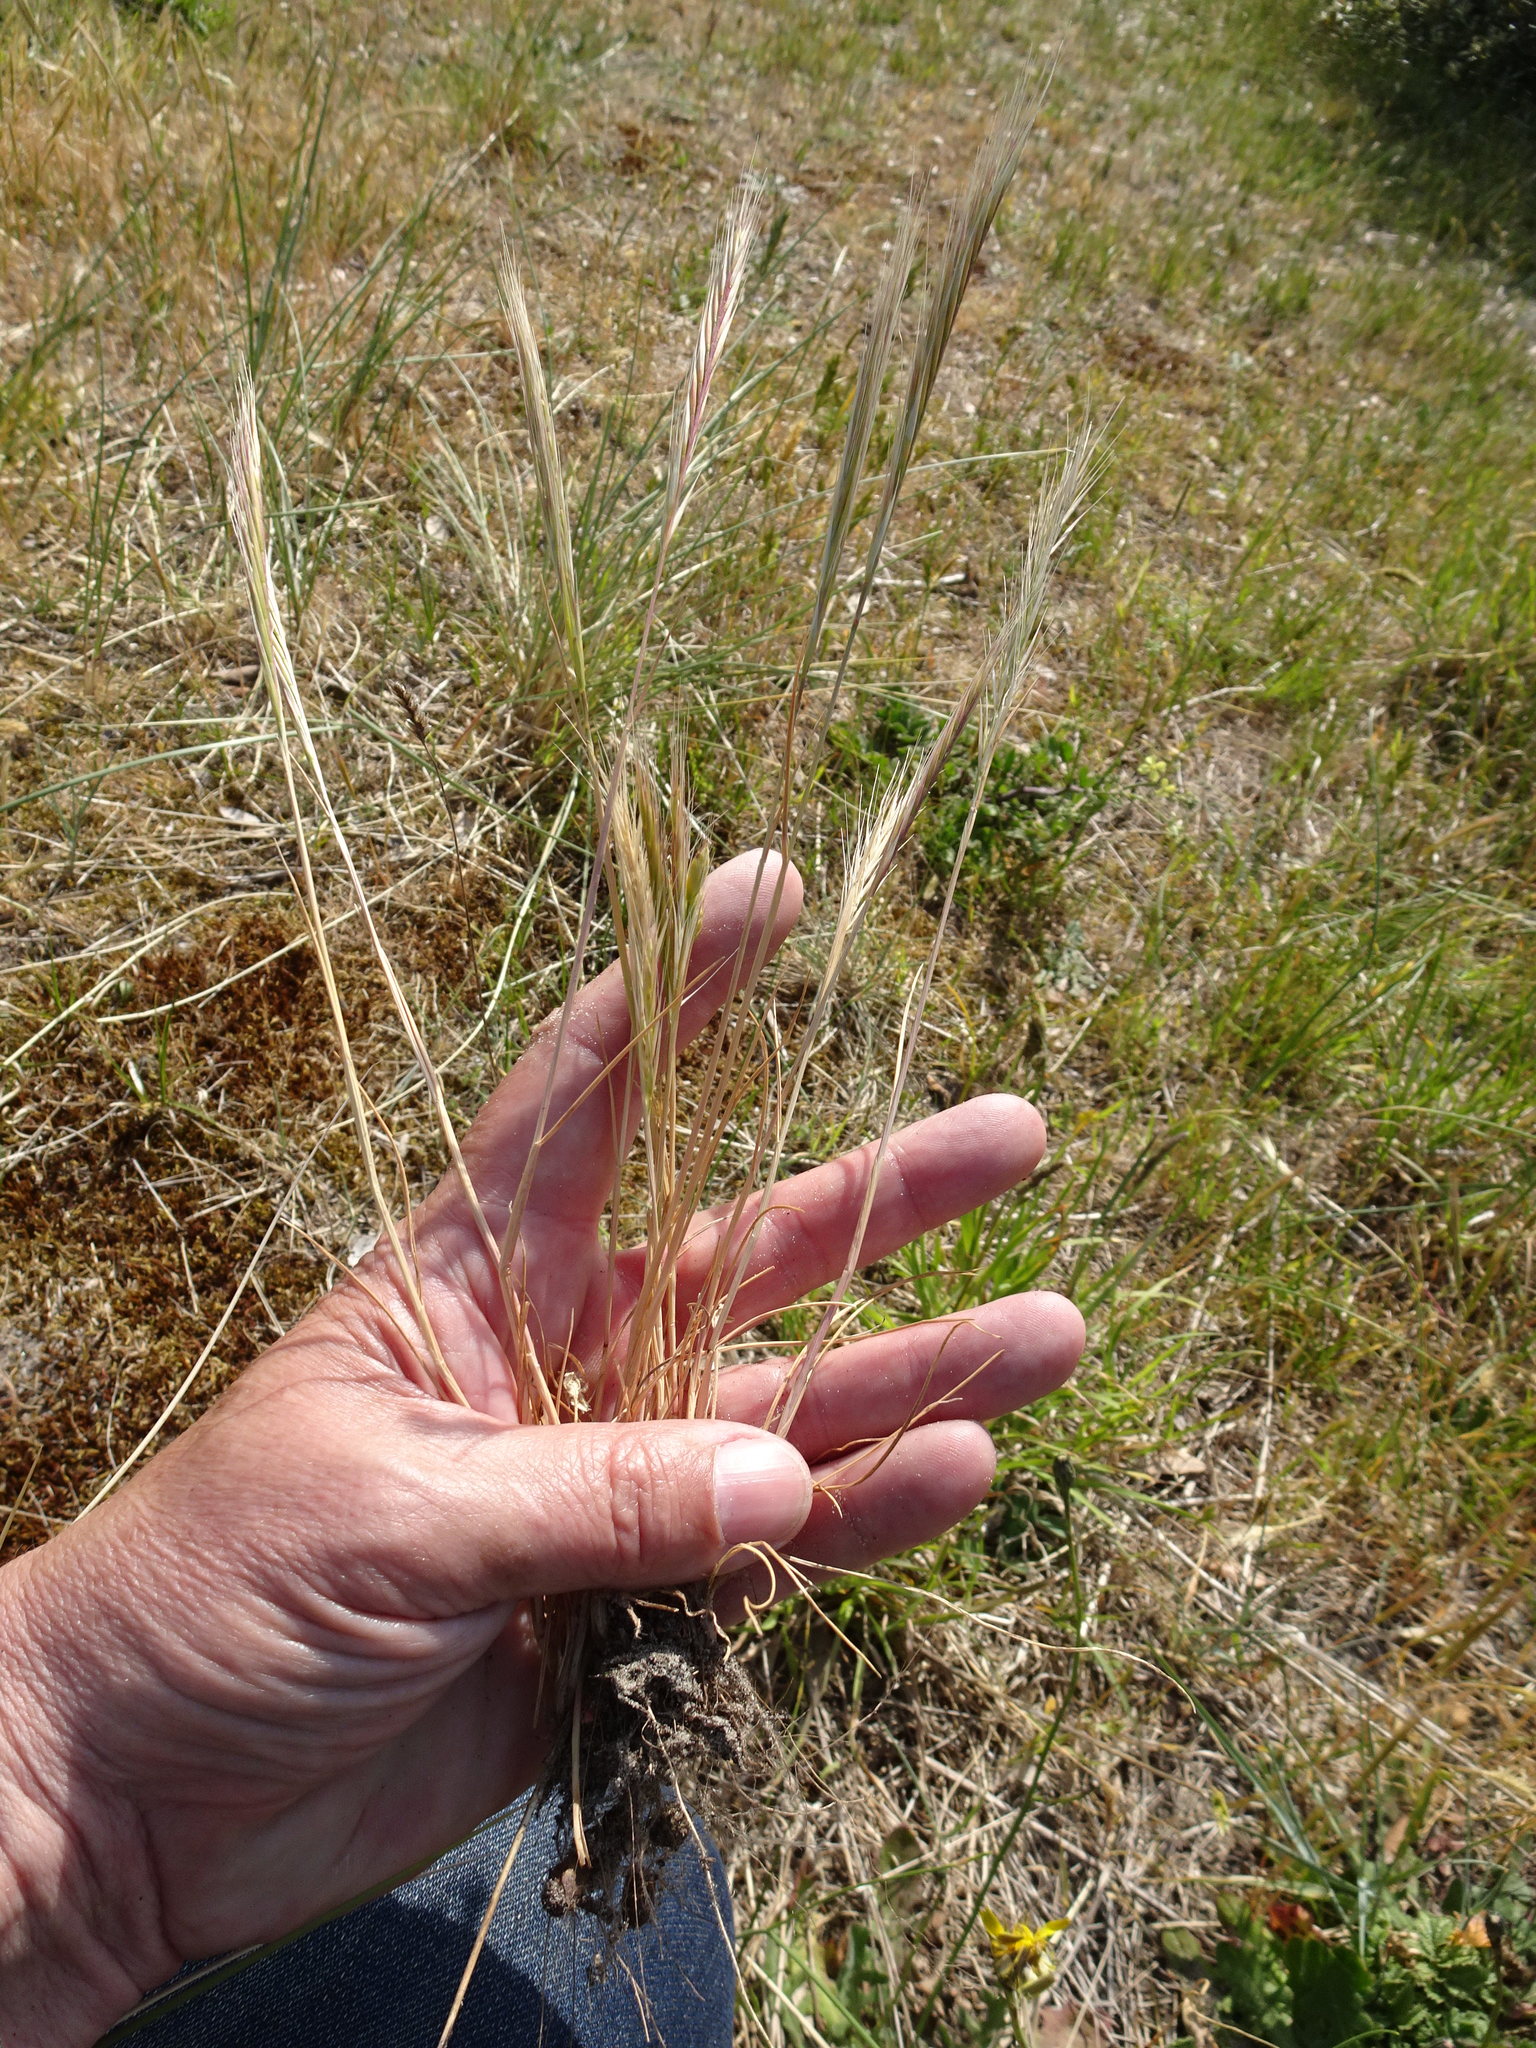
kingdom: Plantae
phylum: Tracheophyta
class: Liliopsida
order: Poales
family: Poaceae
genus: Festuca
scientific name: Festuca fasciculata
